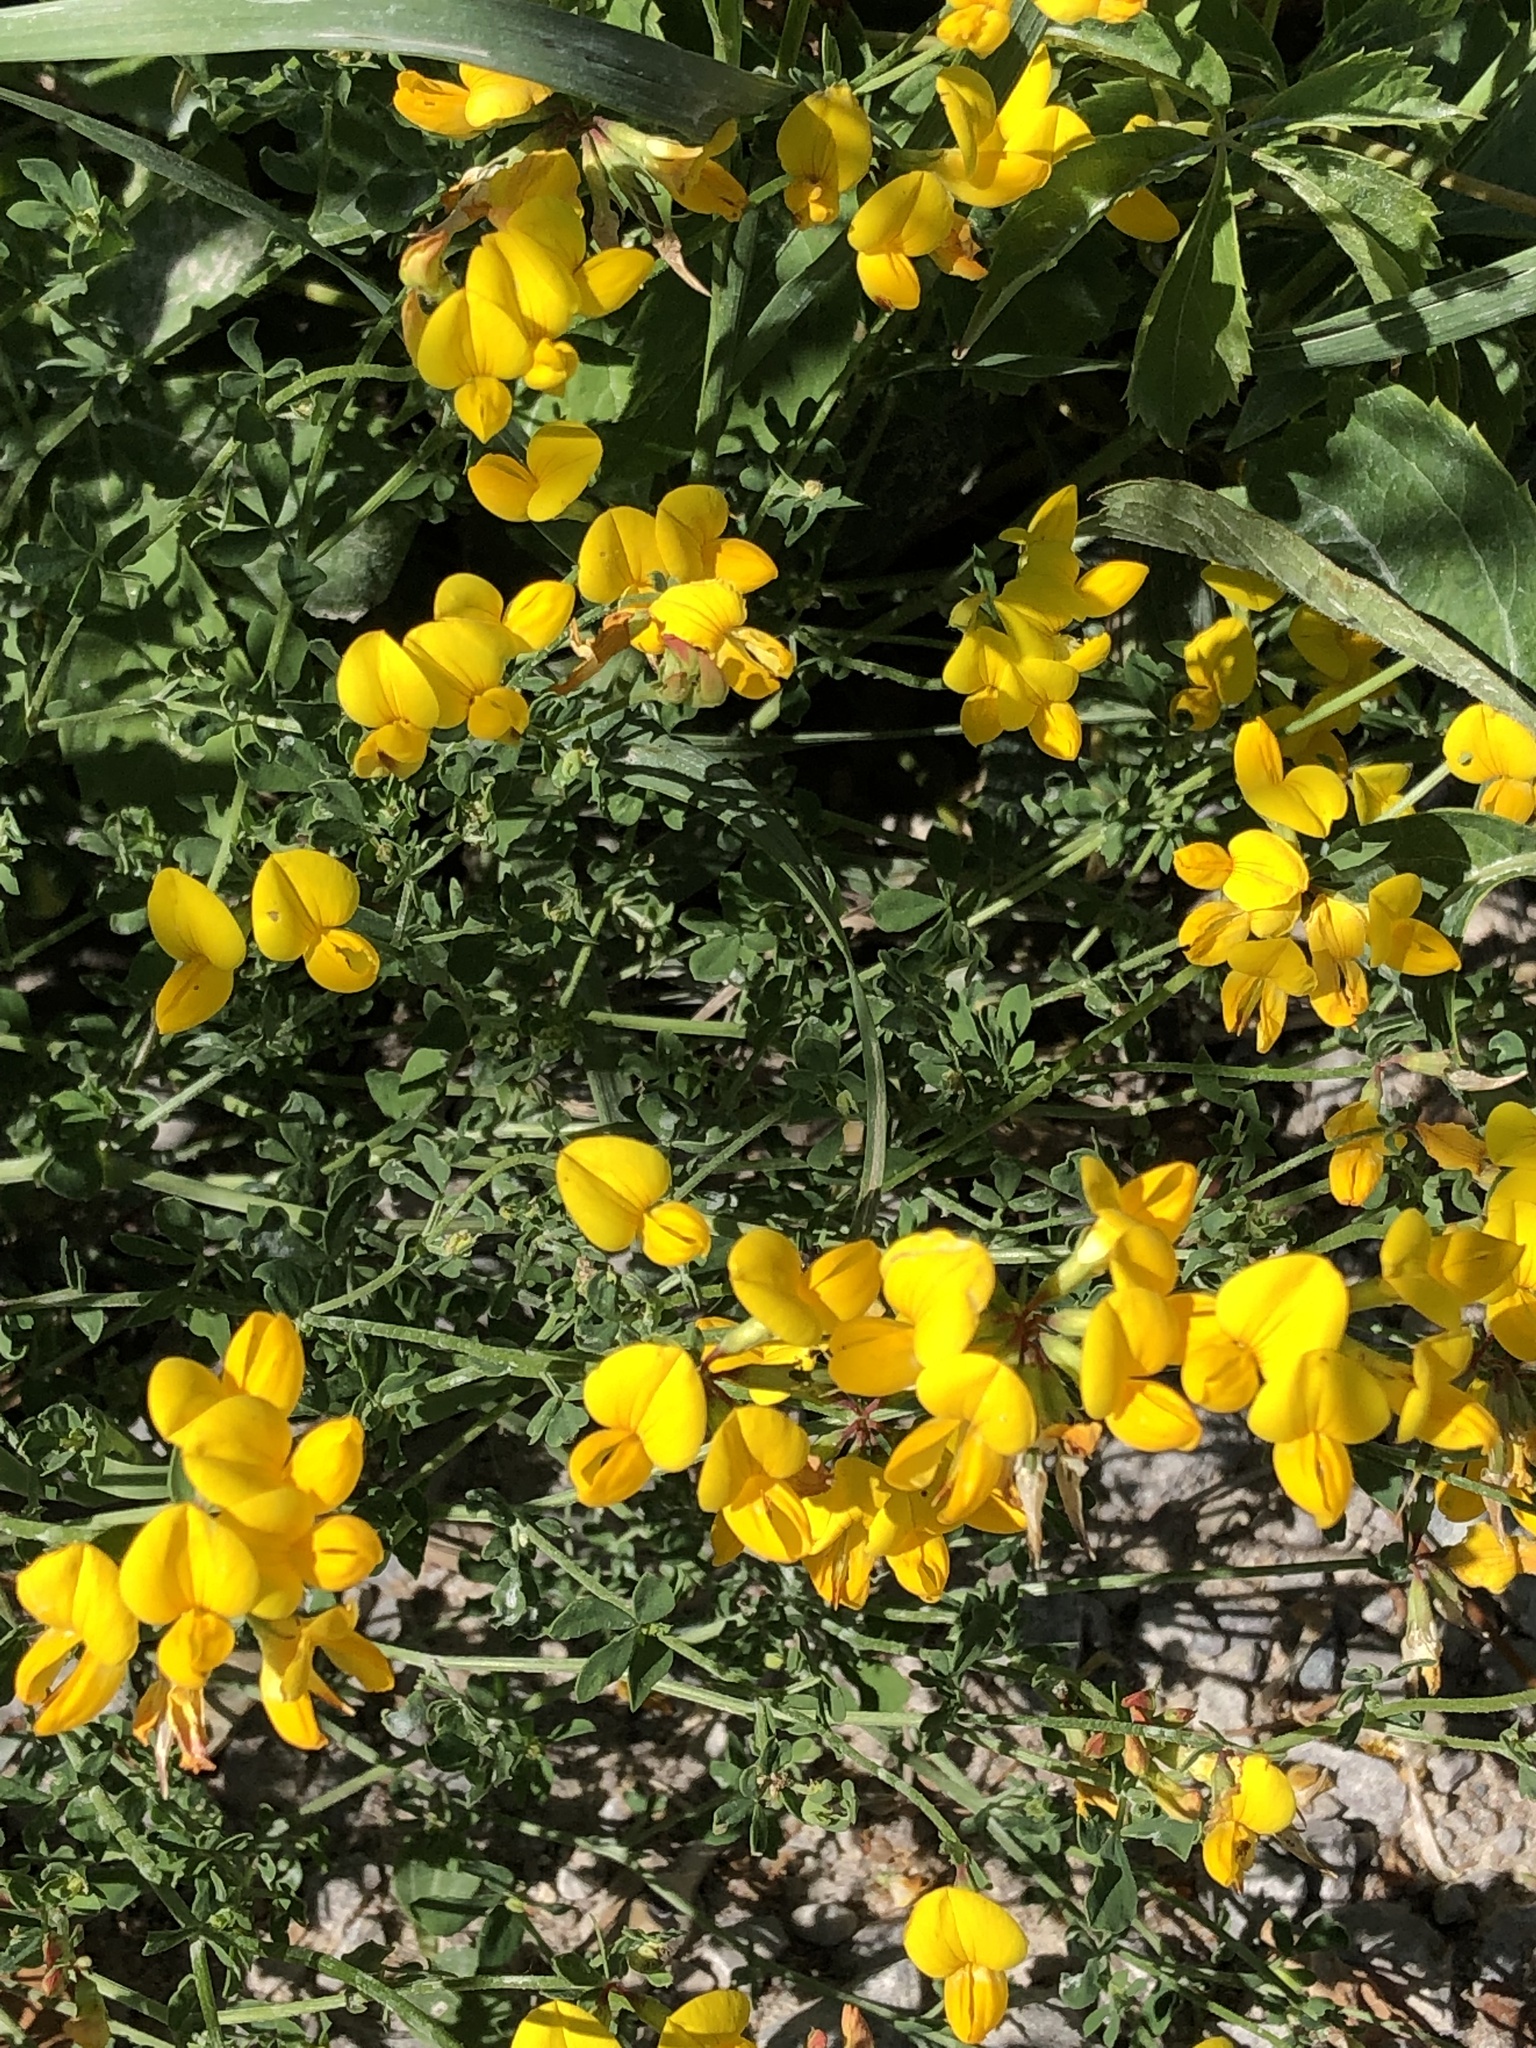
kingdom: Plantae
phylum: Tracheophyta
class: Magnoliopsida
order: Fabales
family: Fabaceae
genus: Lotus
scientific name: Lotus corniculatus
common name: Common bird's-foot-trefoil
